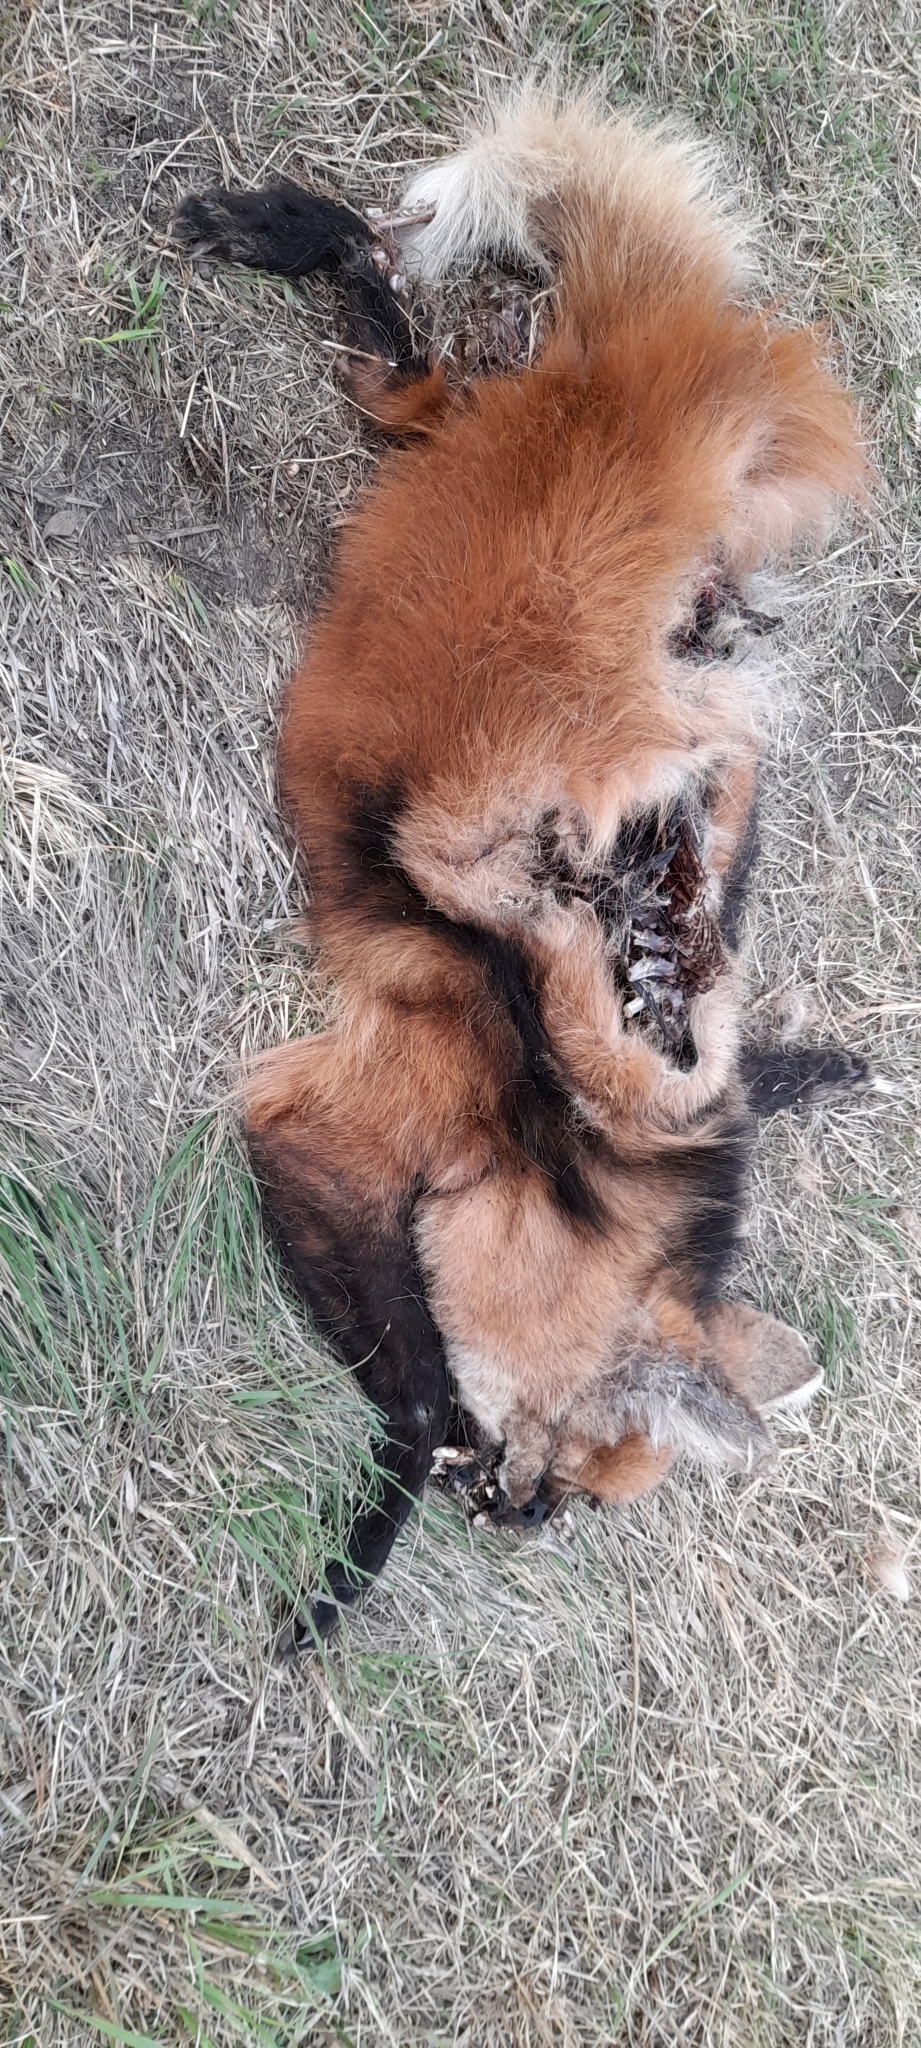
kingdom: Animalia
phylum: Chordata
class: Mammalia
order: Carnivora
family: Canidae
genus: Chrysocyon
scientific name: Chrysocyon brachyurus
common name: Maned wolf
